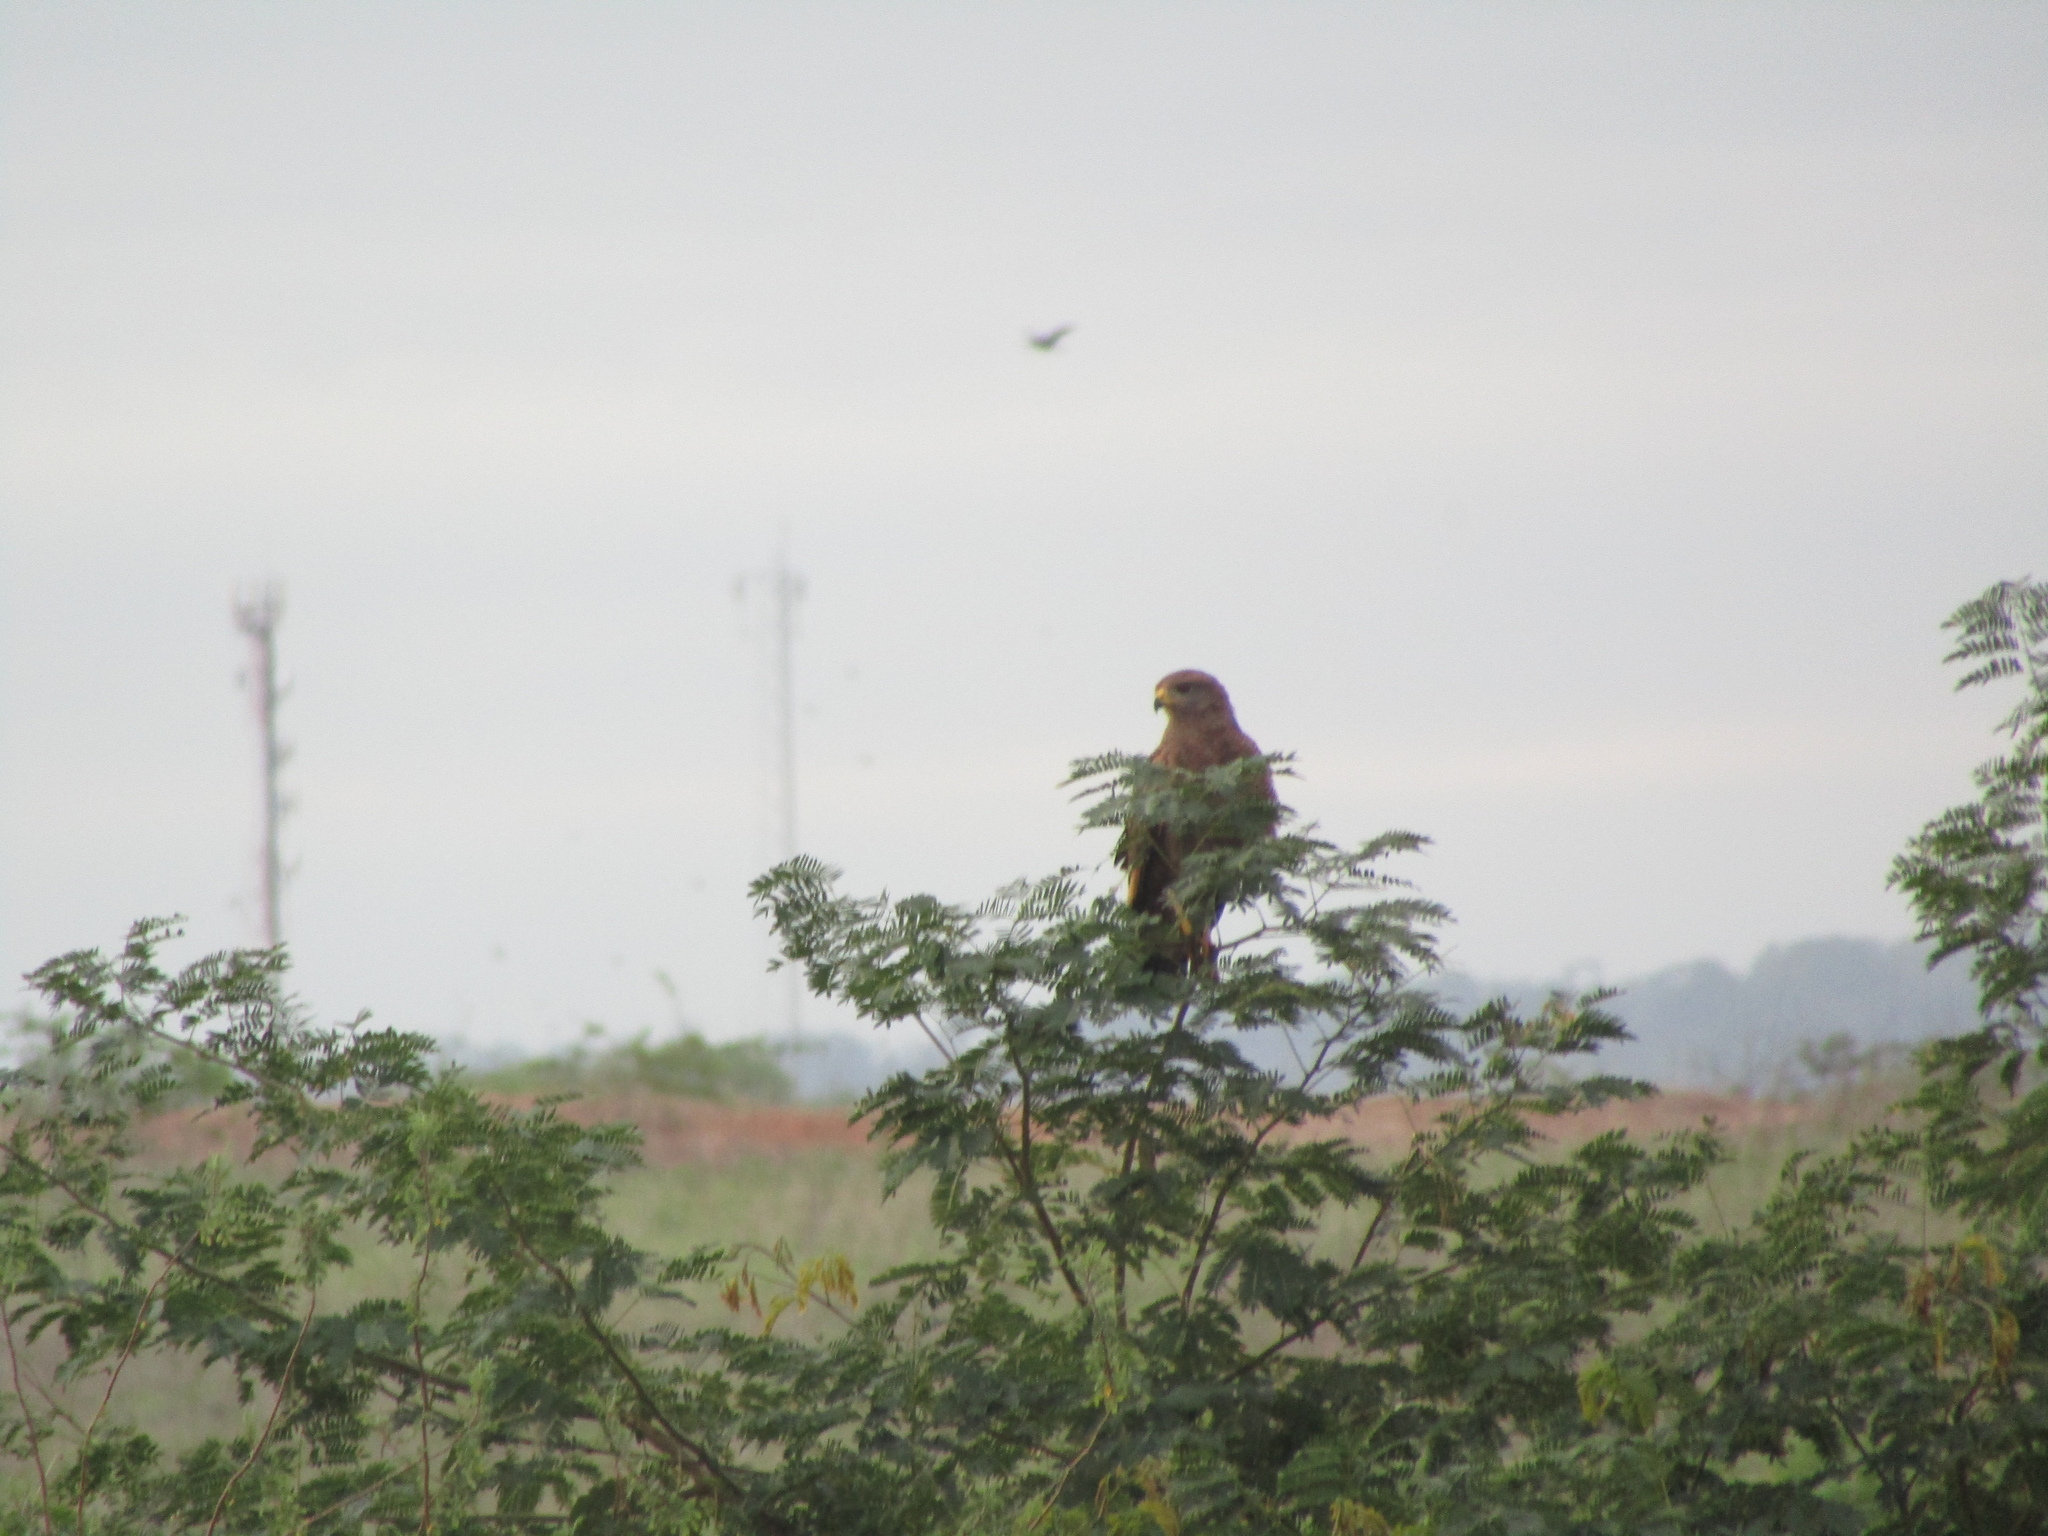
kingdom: Animalia
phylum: Chordata
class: Aves
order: Accipitriformes
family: Accipitridae
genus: Buteogallus
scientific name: Buteogallus meridionalis
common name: Savanna hawk
